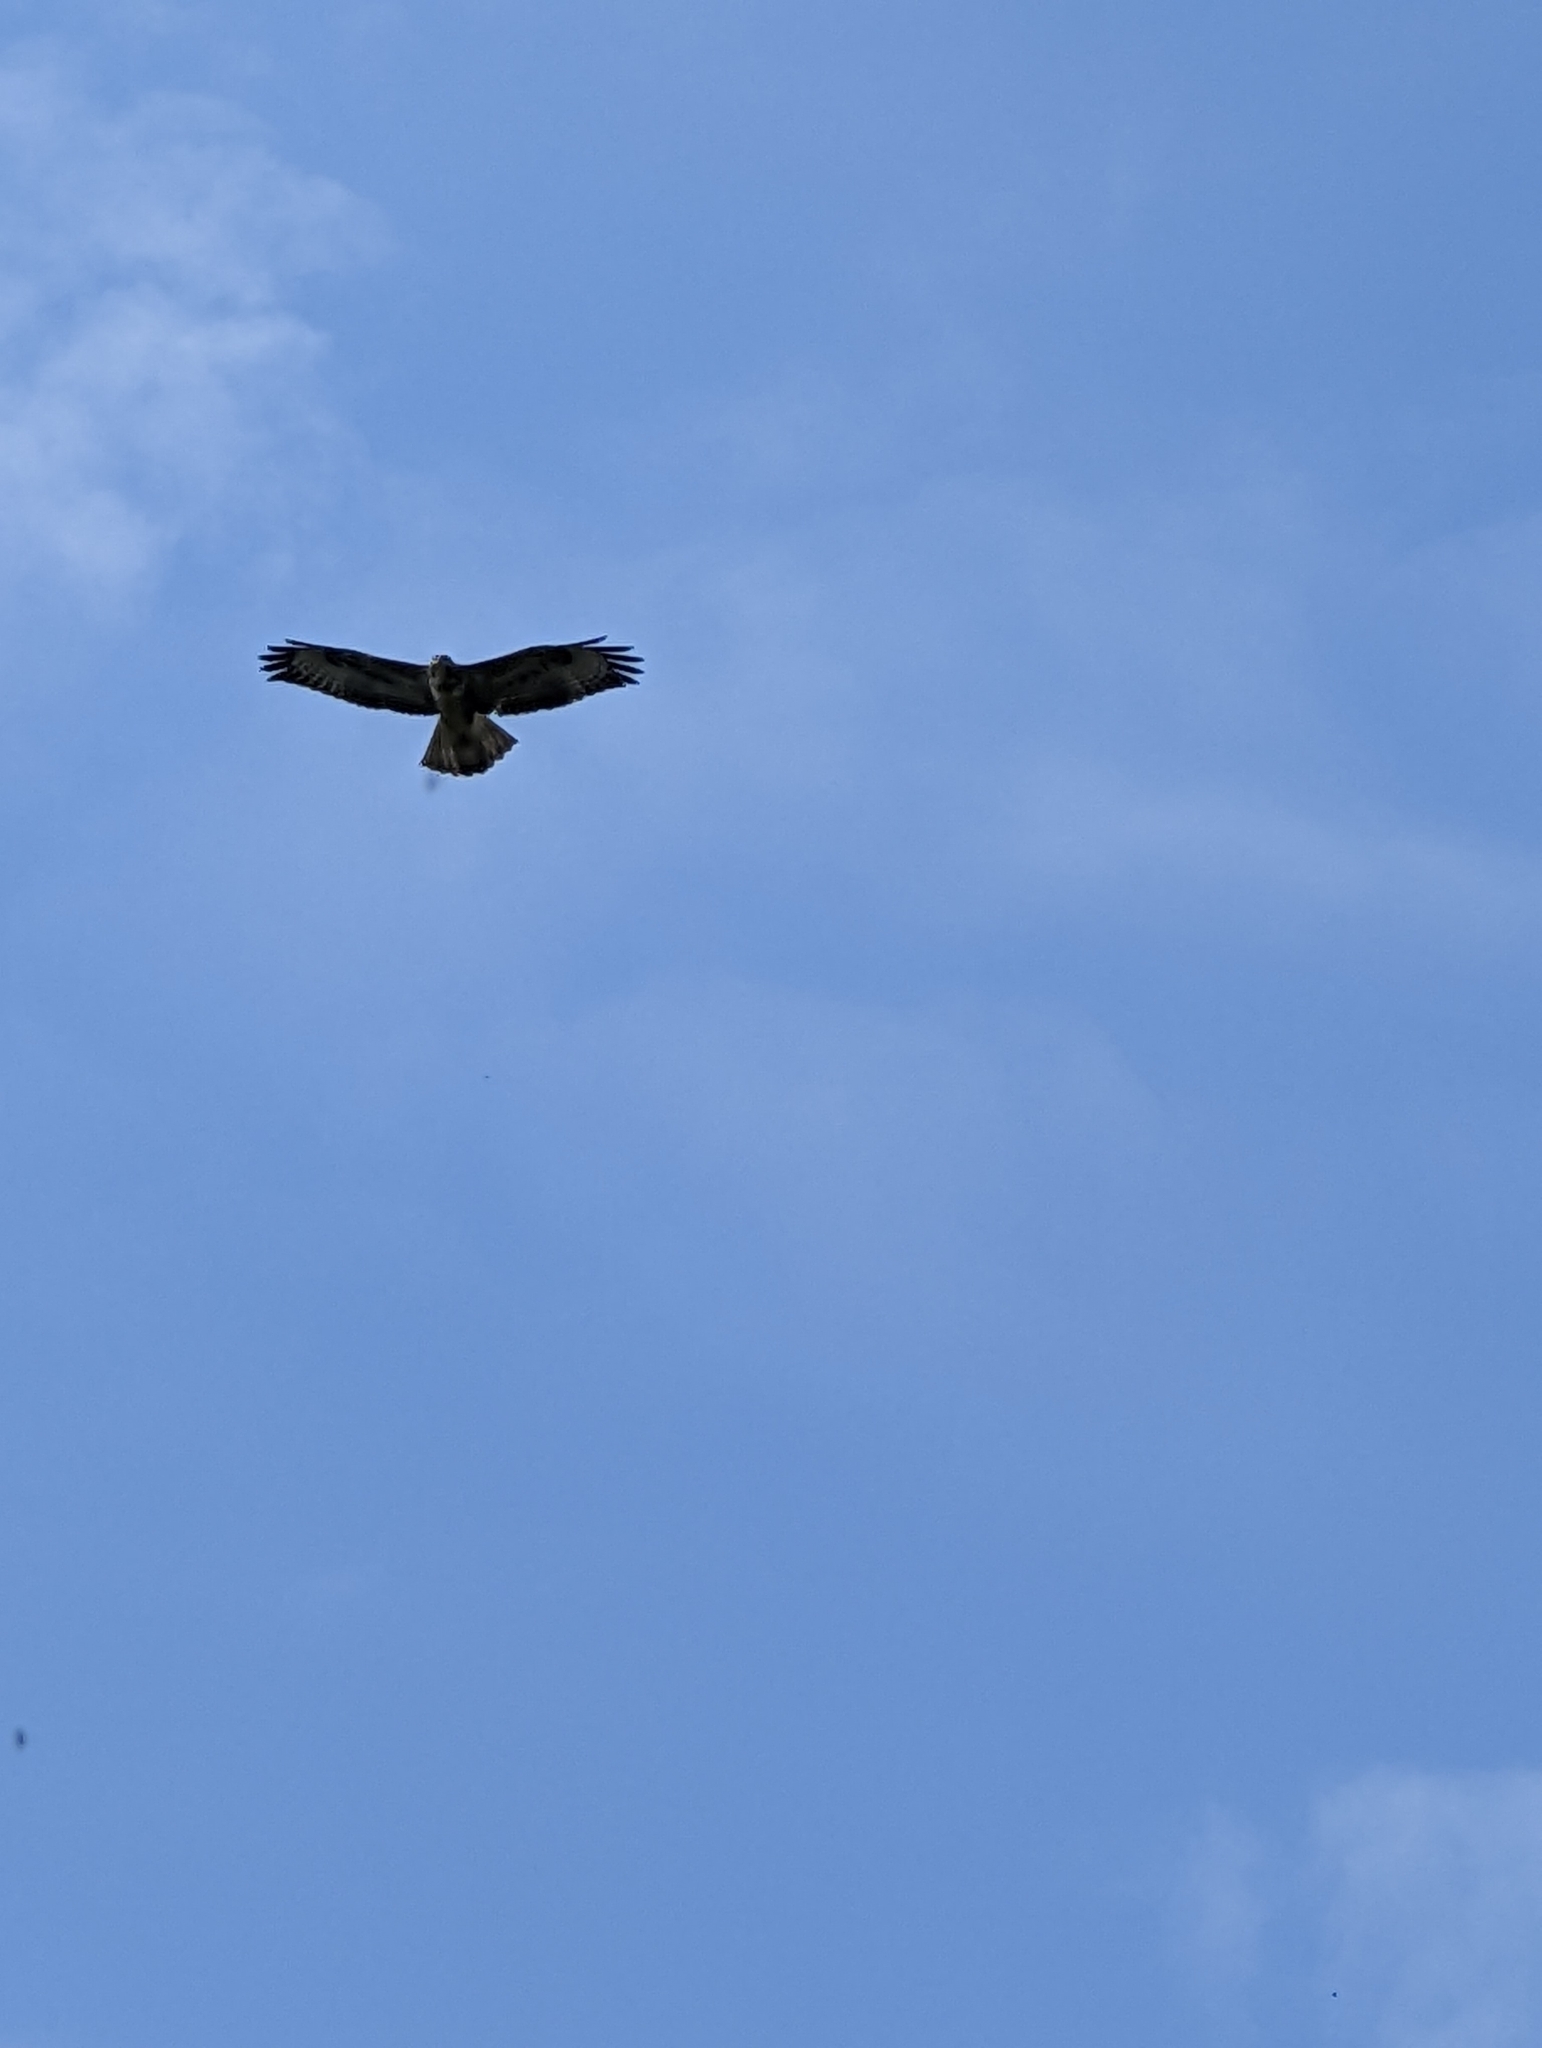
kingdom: Animalia
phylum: Chordata
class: Aves
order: Accipitriformes
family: Accipitridae
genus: Buteo
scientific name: Buteo buteo
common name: Common buzzard
